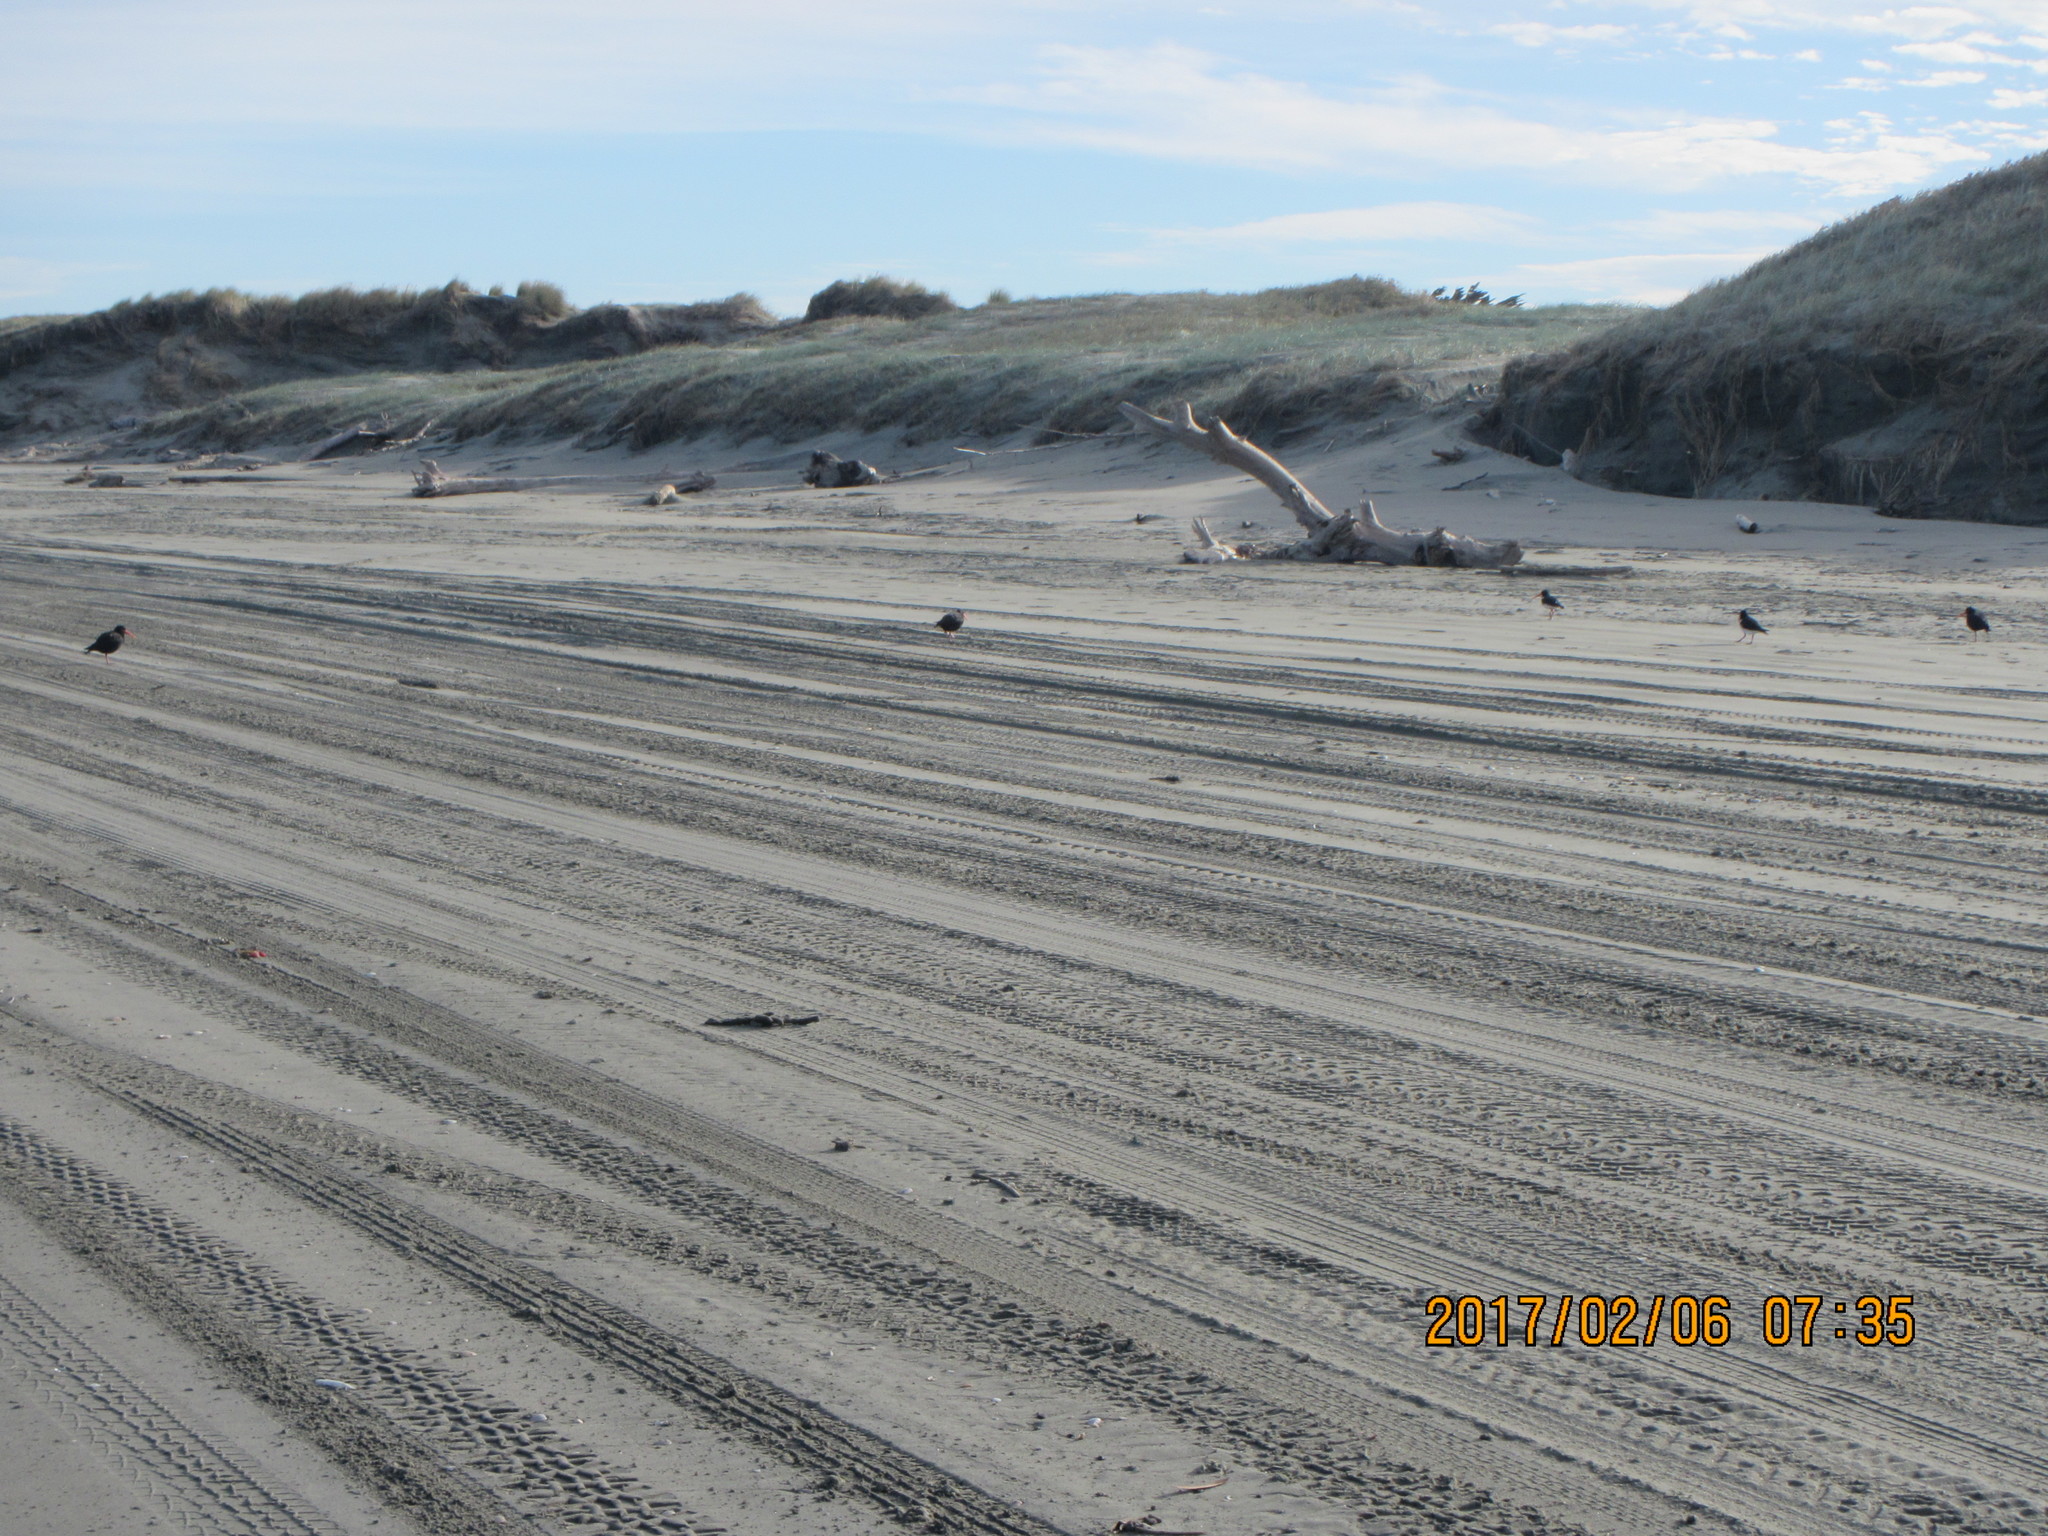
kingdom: Animalia
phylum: Chordata
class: Aves
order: Charadriiformes
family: Haematopodidae
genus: Haematopus
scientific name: Haematopus unicolor
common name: Variable oystercatcher
